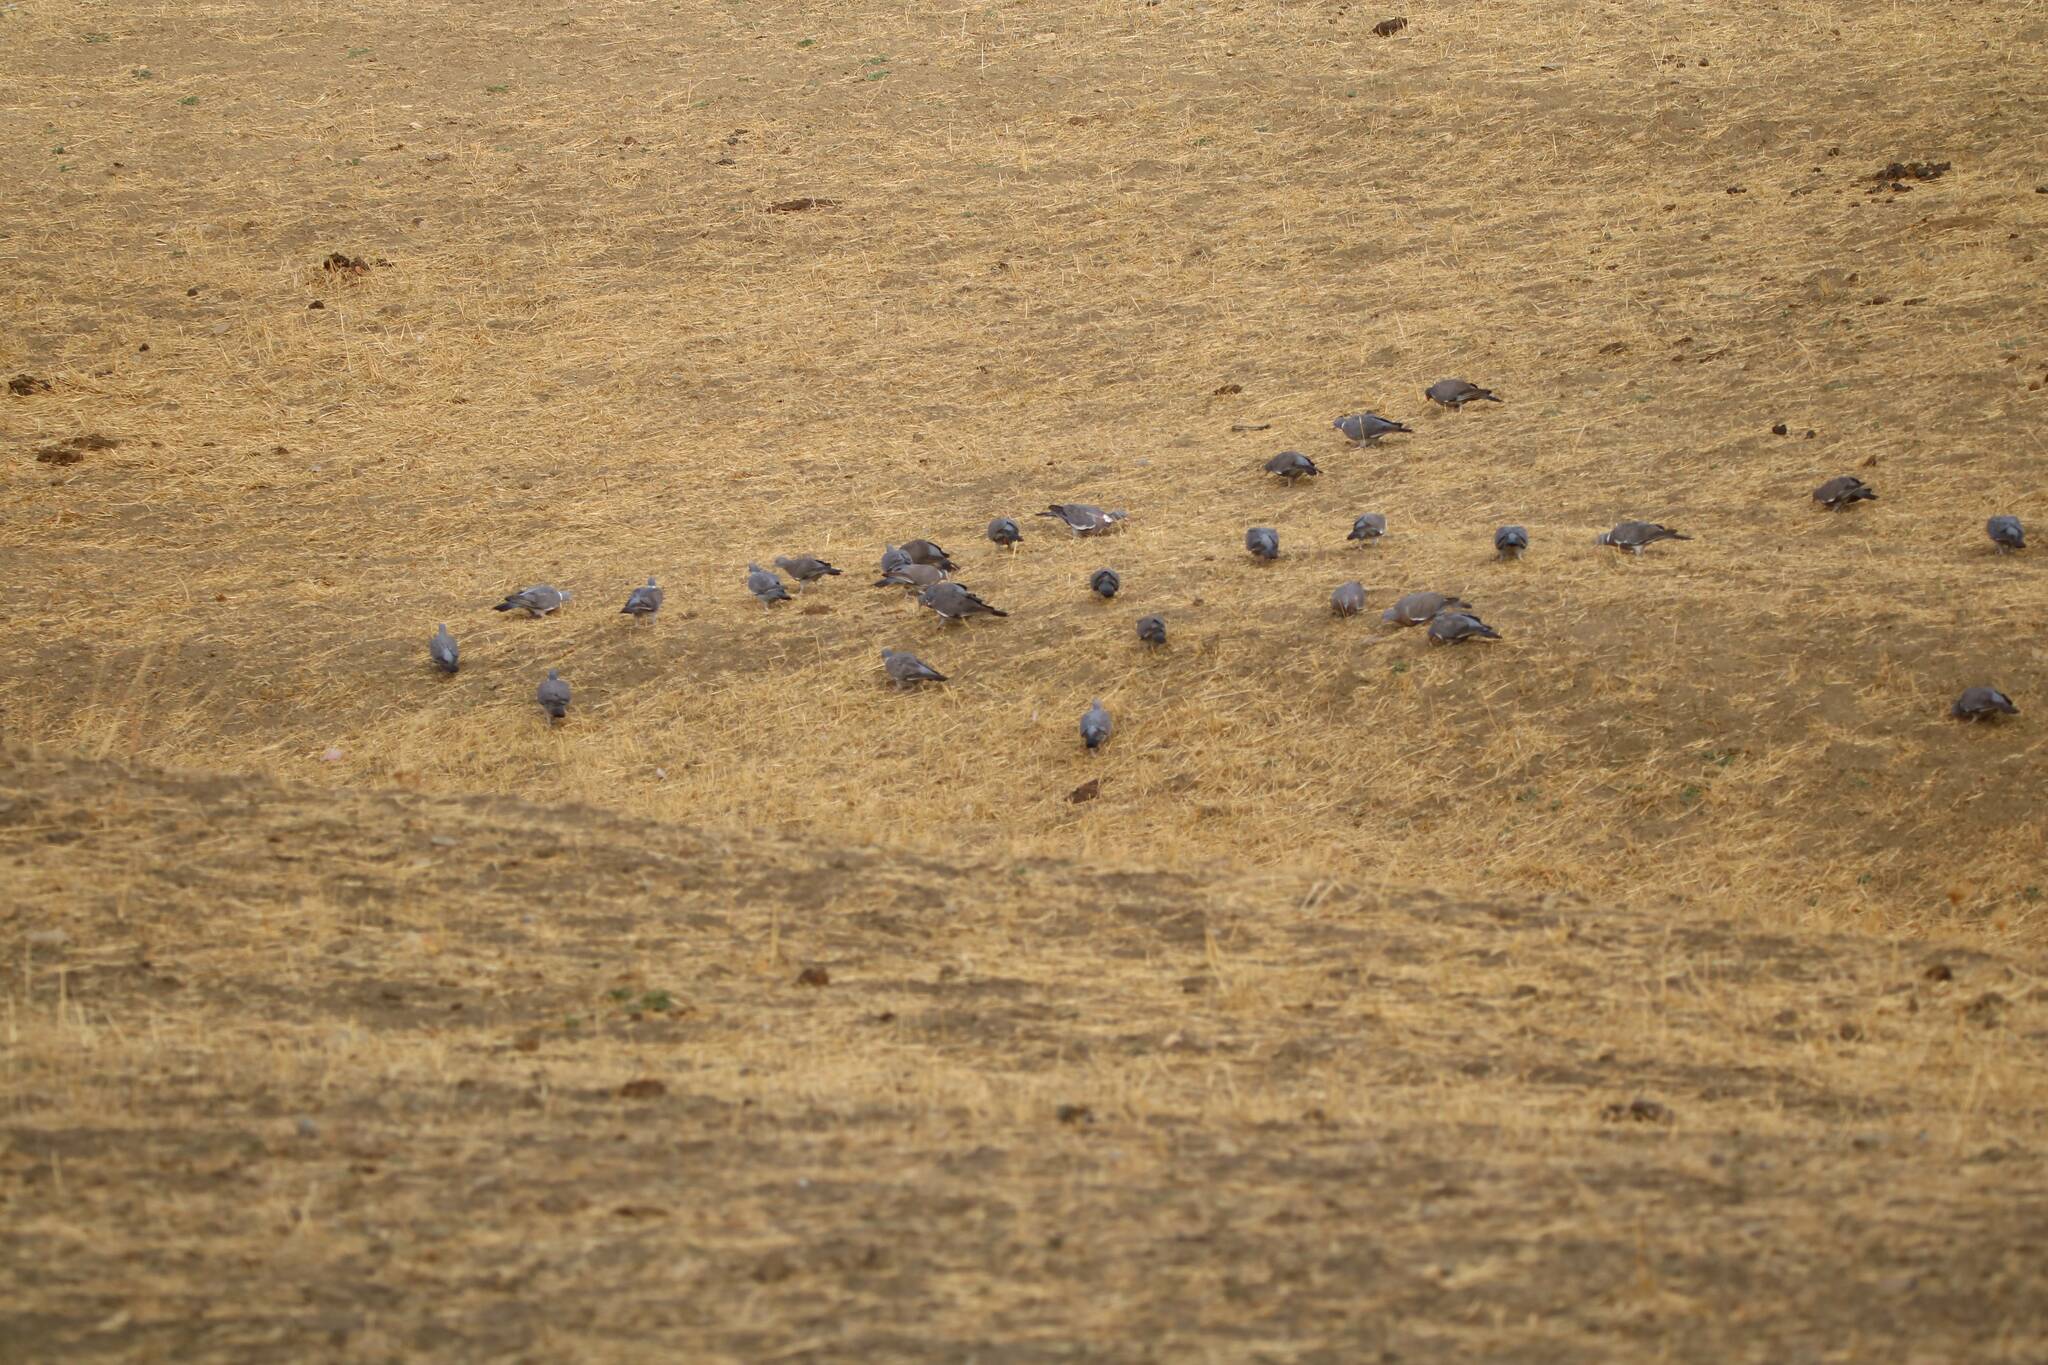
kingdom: Animalia
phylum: Chordata
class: Aves
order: Columbiformes
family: Columbidae
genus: Columba
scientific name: Columba palumbus
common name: Common wood pigeon
